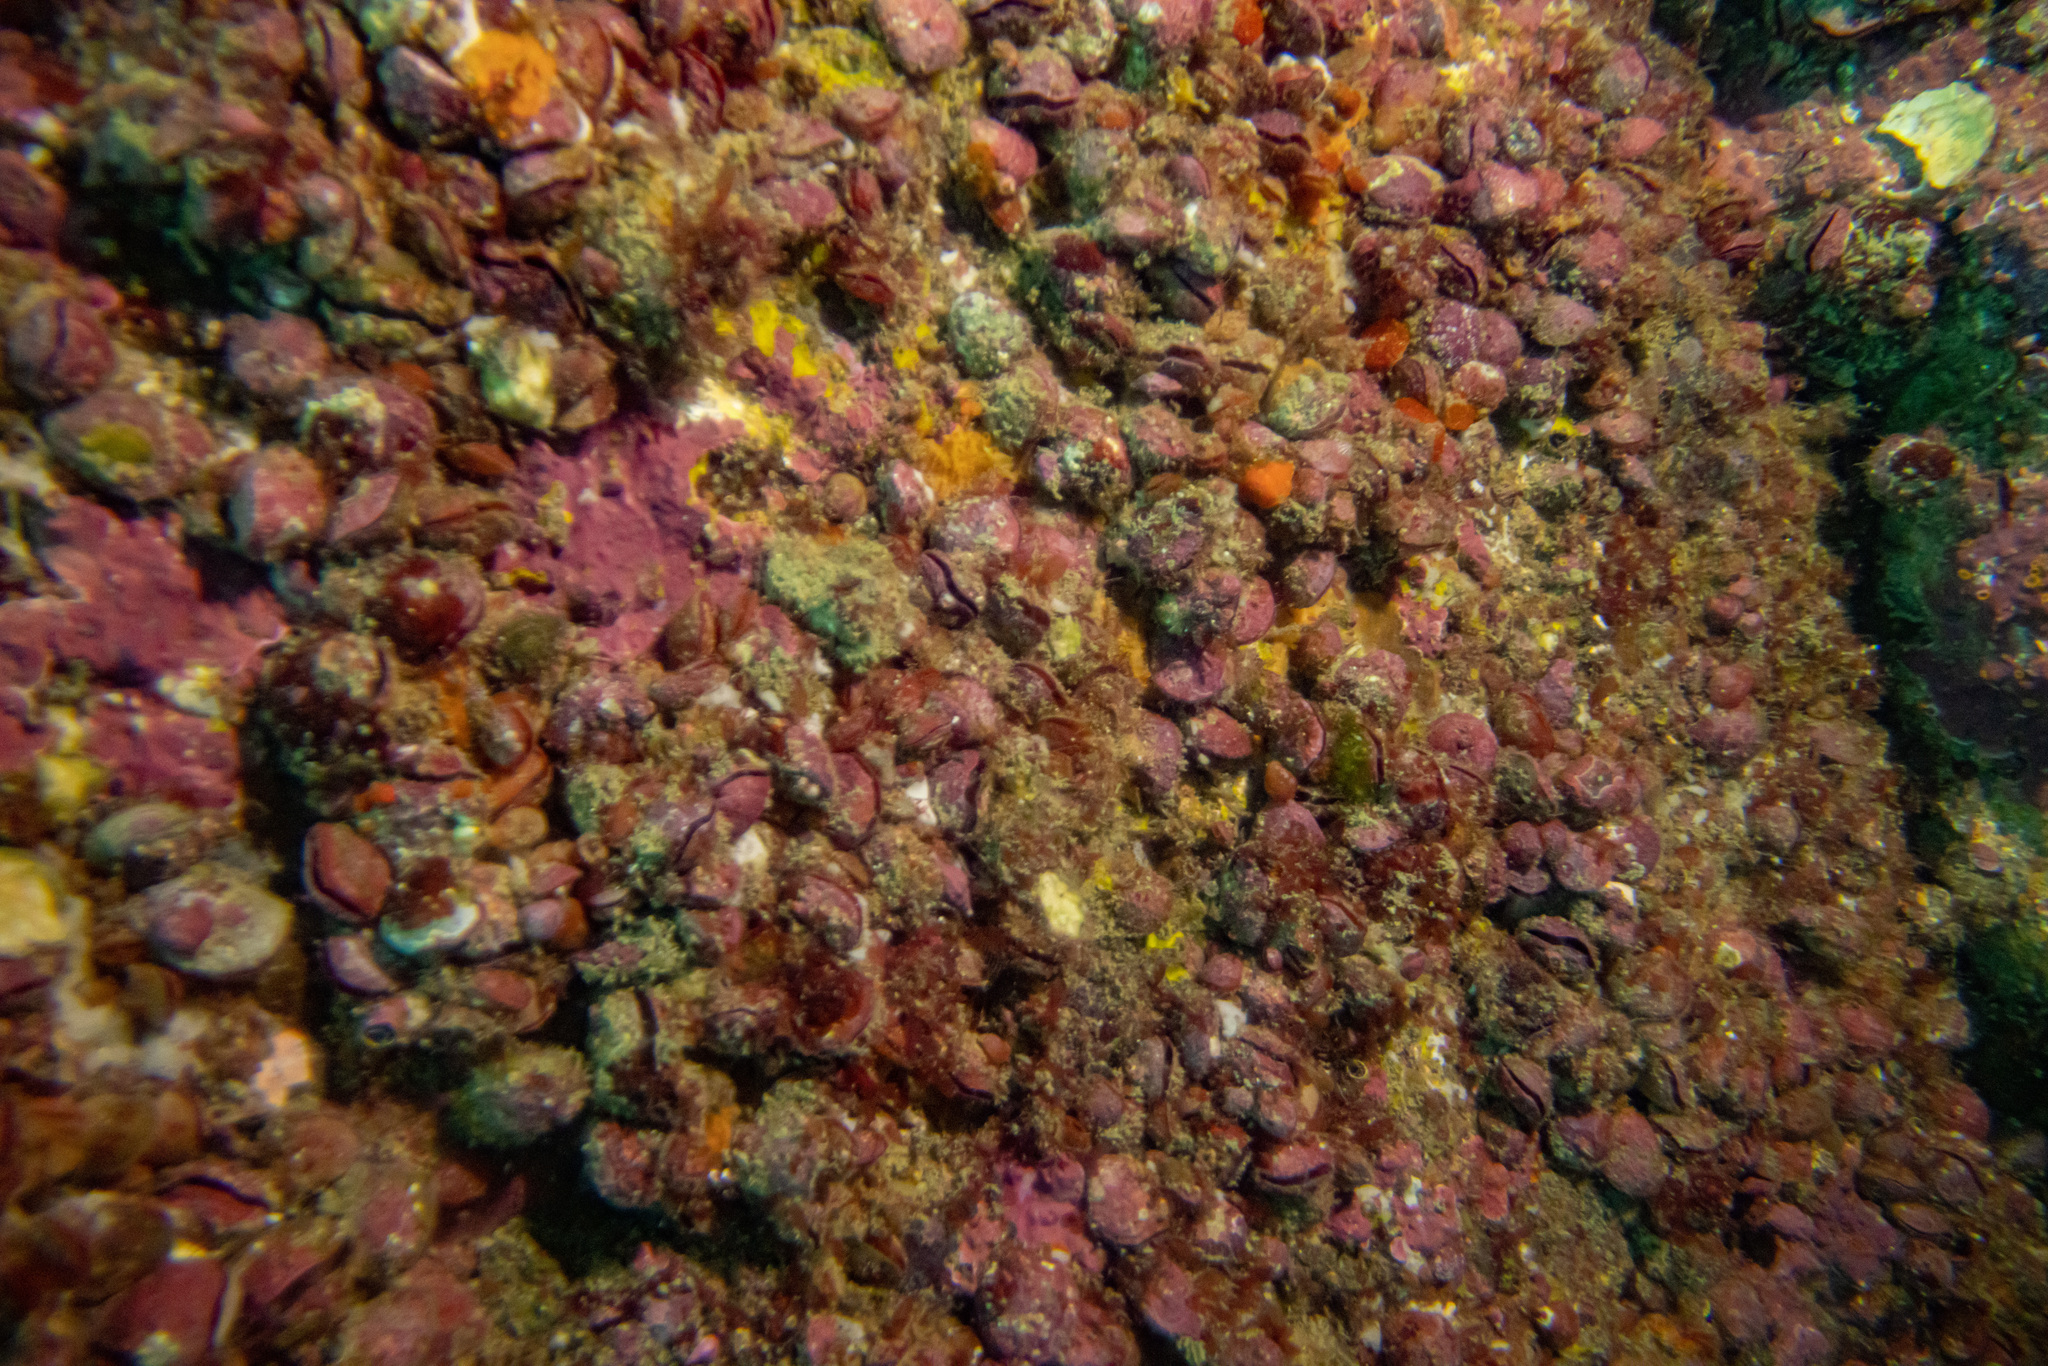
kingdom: Animalia
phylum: Brachiopoda
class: Rhynchonellata
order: Terebratulida
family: Terebratellidae
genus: Calloria
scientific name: Calloria inconspicua
